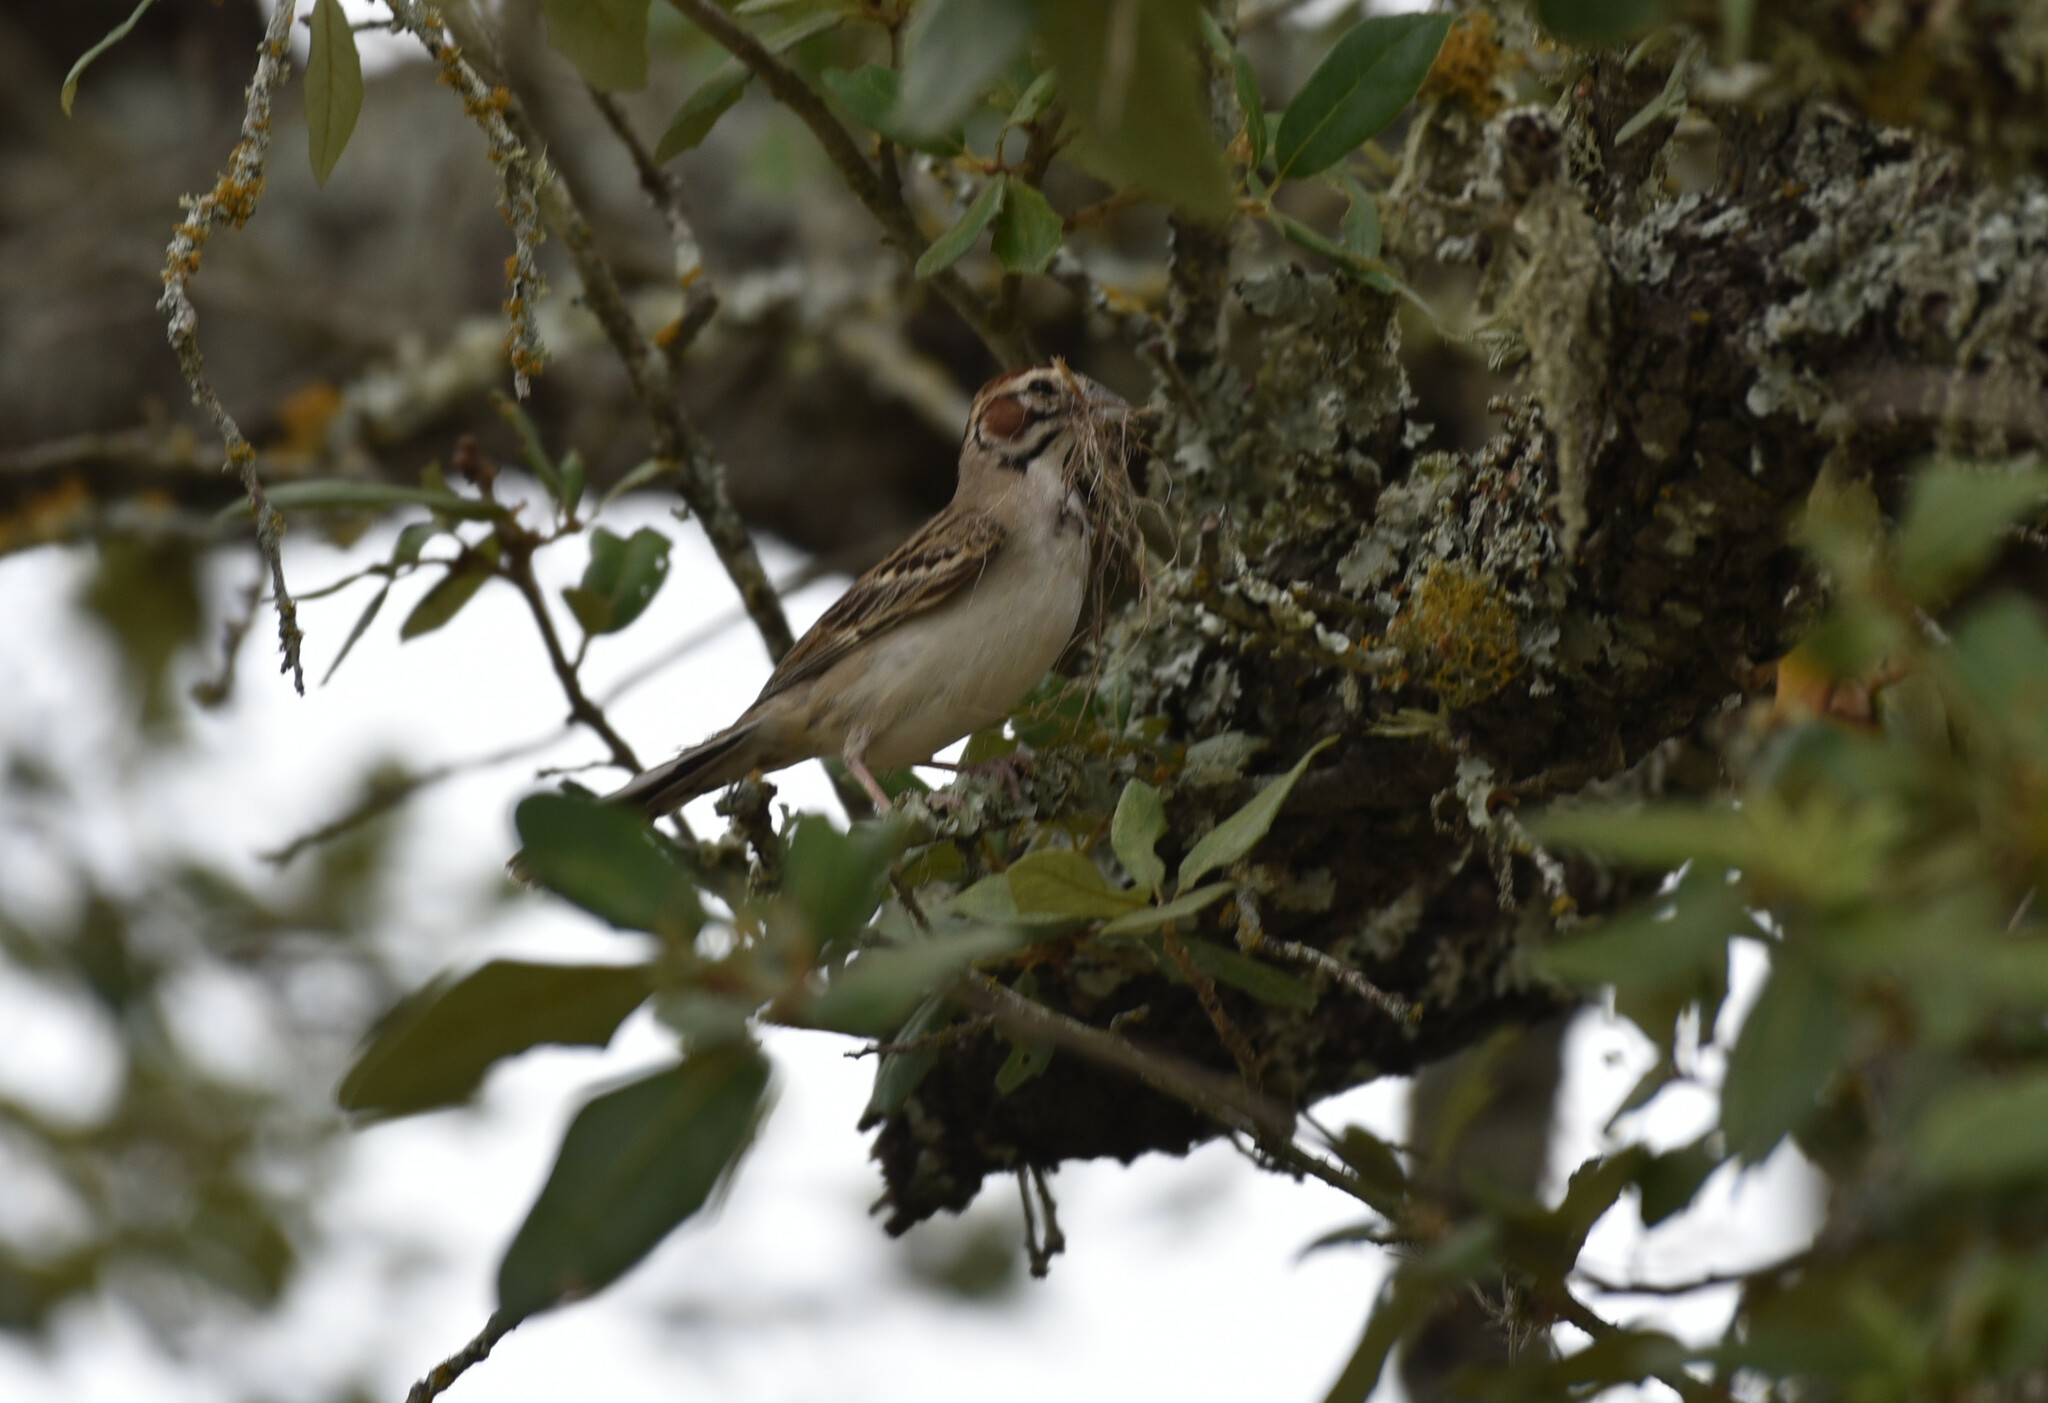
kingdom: Animalia
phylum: Chordata
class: Aves
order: Passeriformes
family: Passerellidae
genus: Chondestes
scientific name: Chondestes grammacus
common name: Lark sparrow
